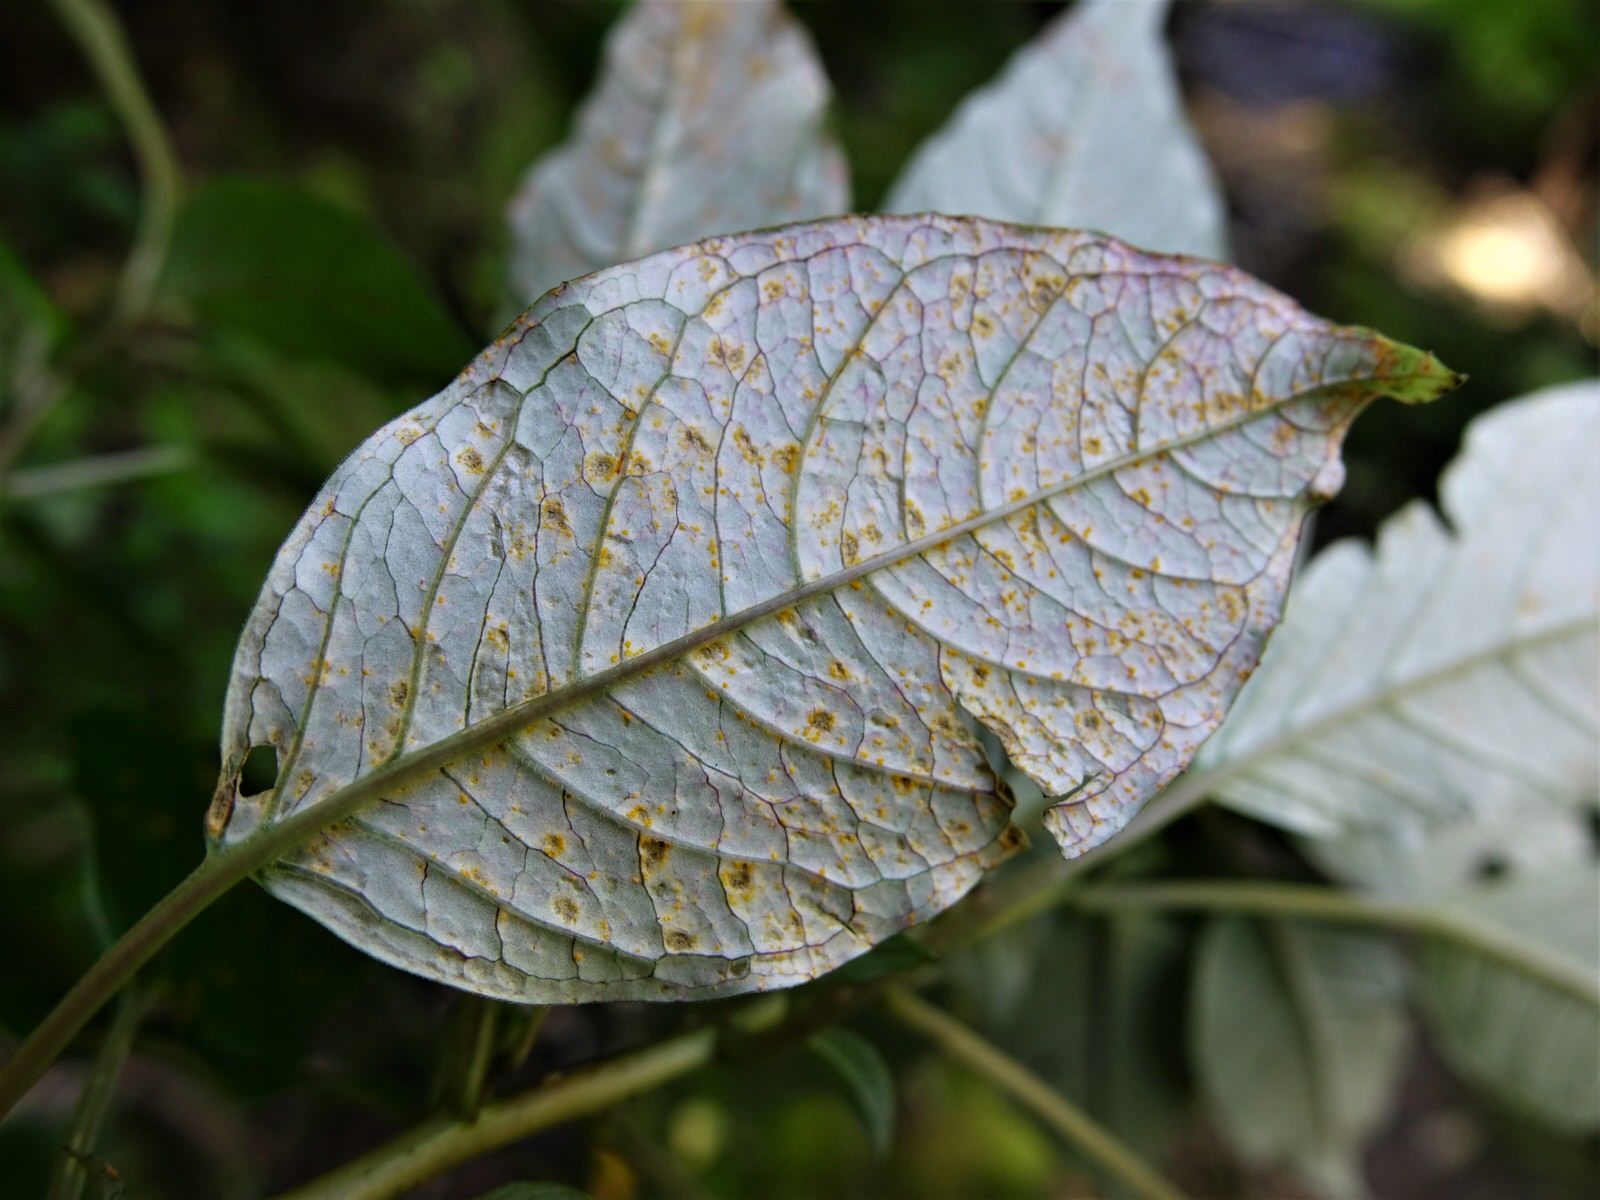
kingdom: Plantae
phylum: Tracheophyta
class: Magnoliopsida
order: Myrtales
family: Onagraceae
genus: Fuchsia
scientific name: Fuchsia excorticata
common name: Tree fuchsia
